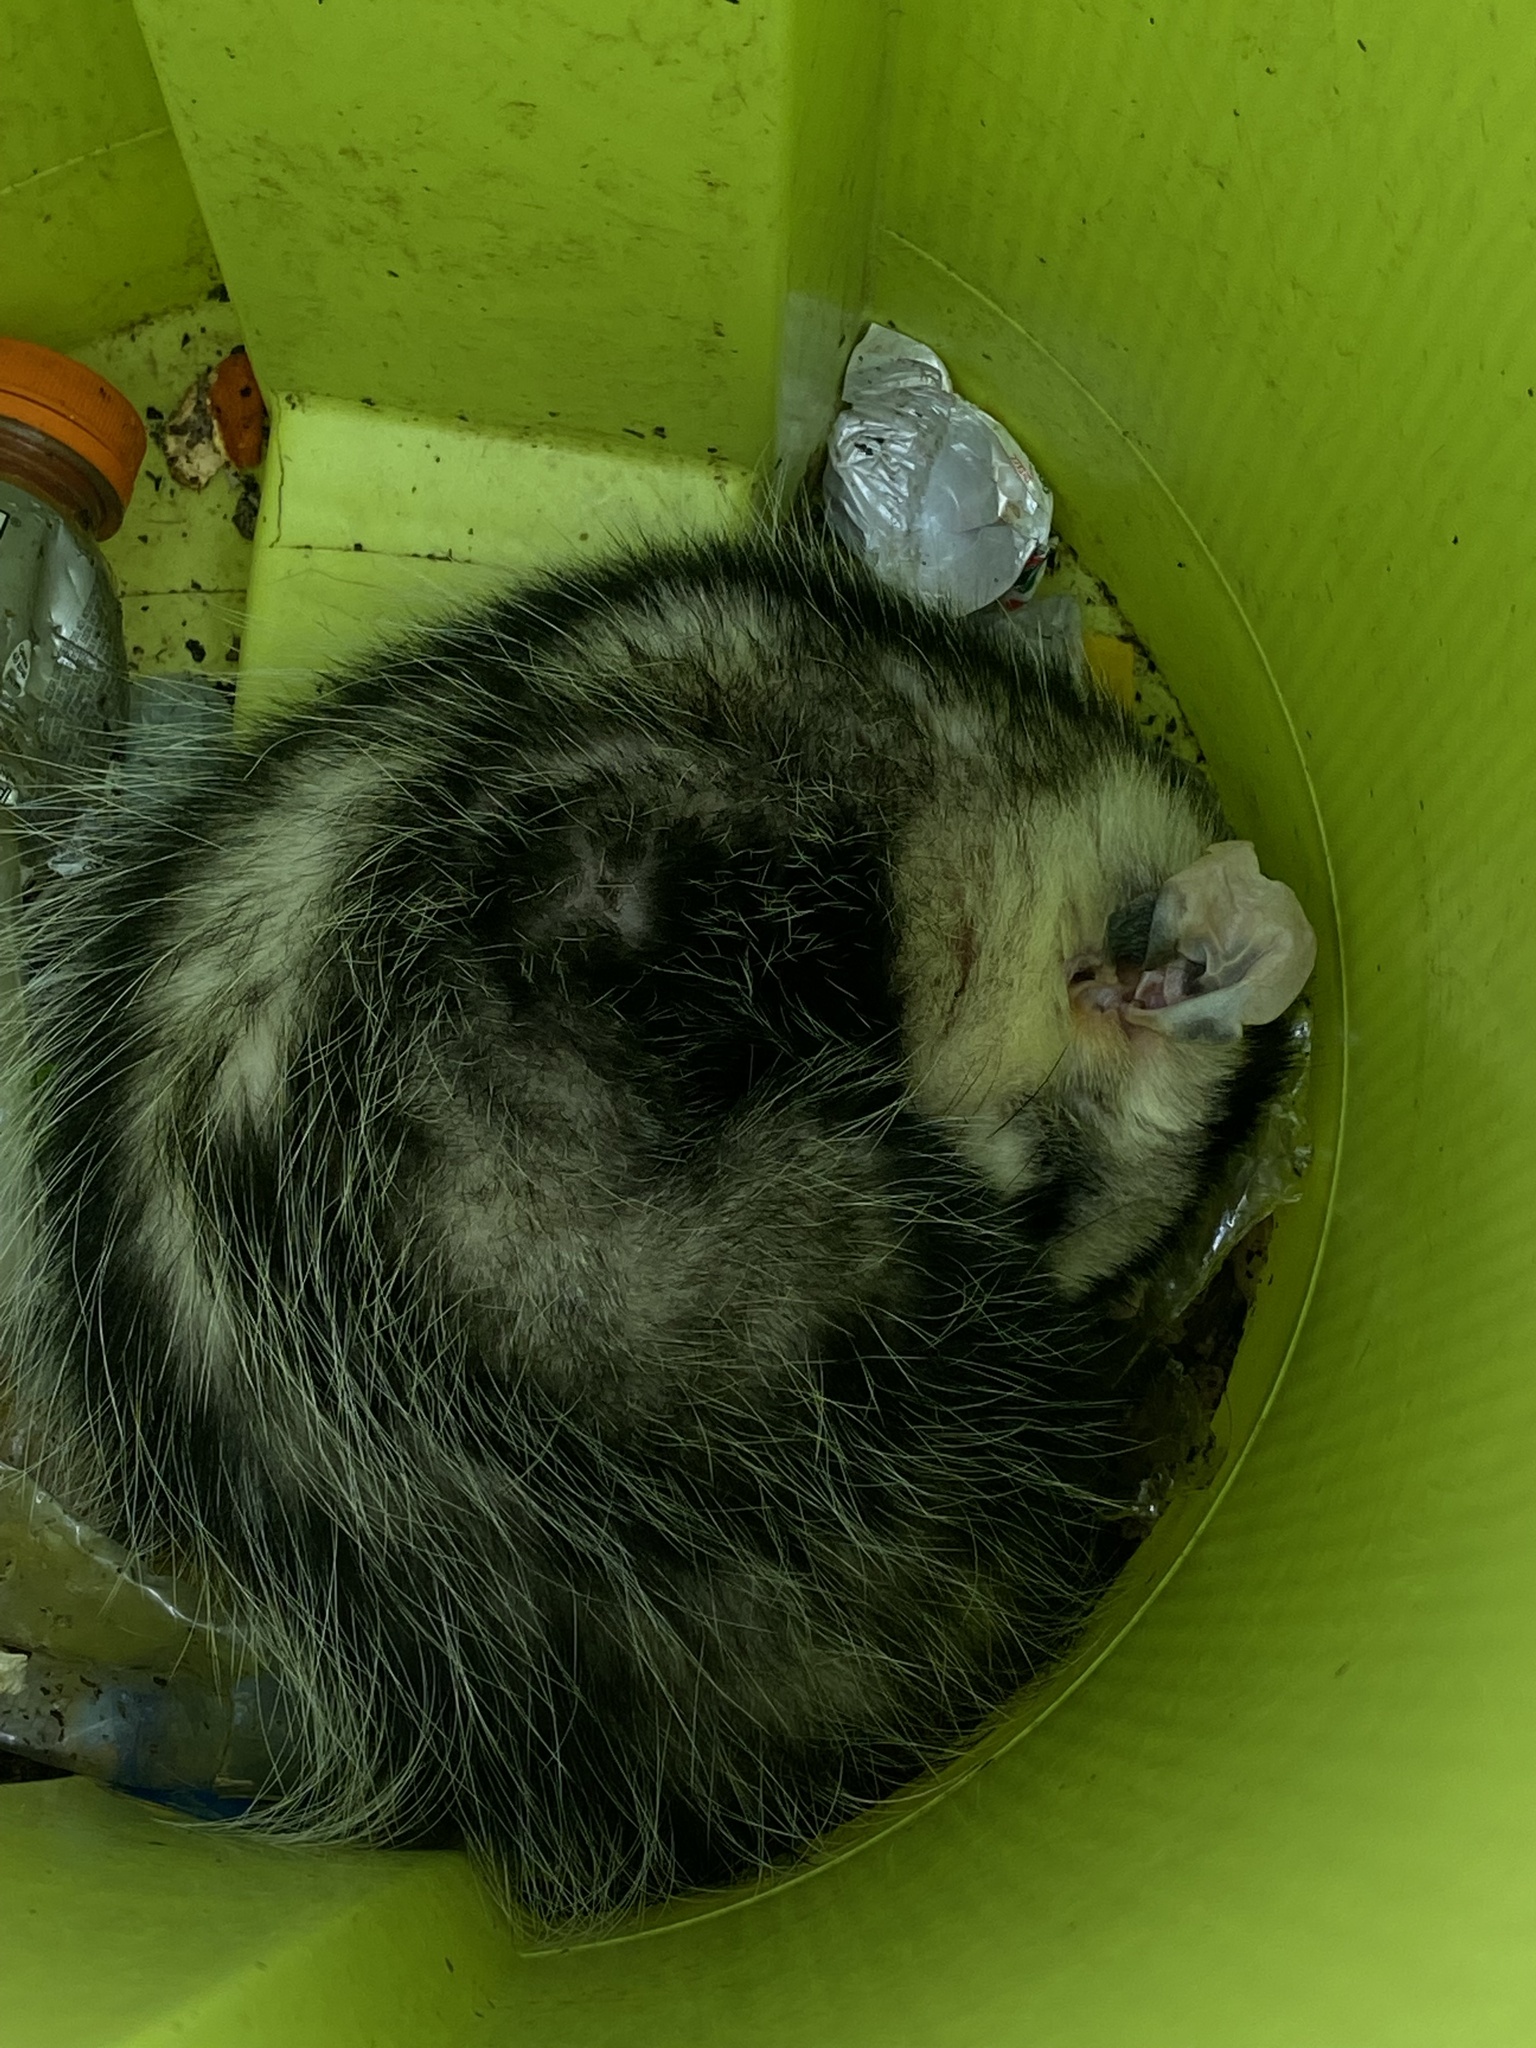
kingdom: Animalia
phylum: Chordata
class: Mammalia
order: Didelphimorphia
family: Didelphidae
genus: Didelphis
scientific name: Didelphis albiventris
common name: White-eared opossum
